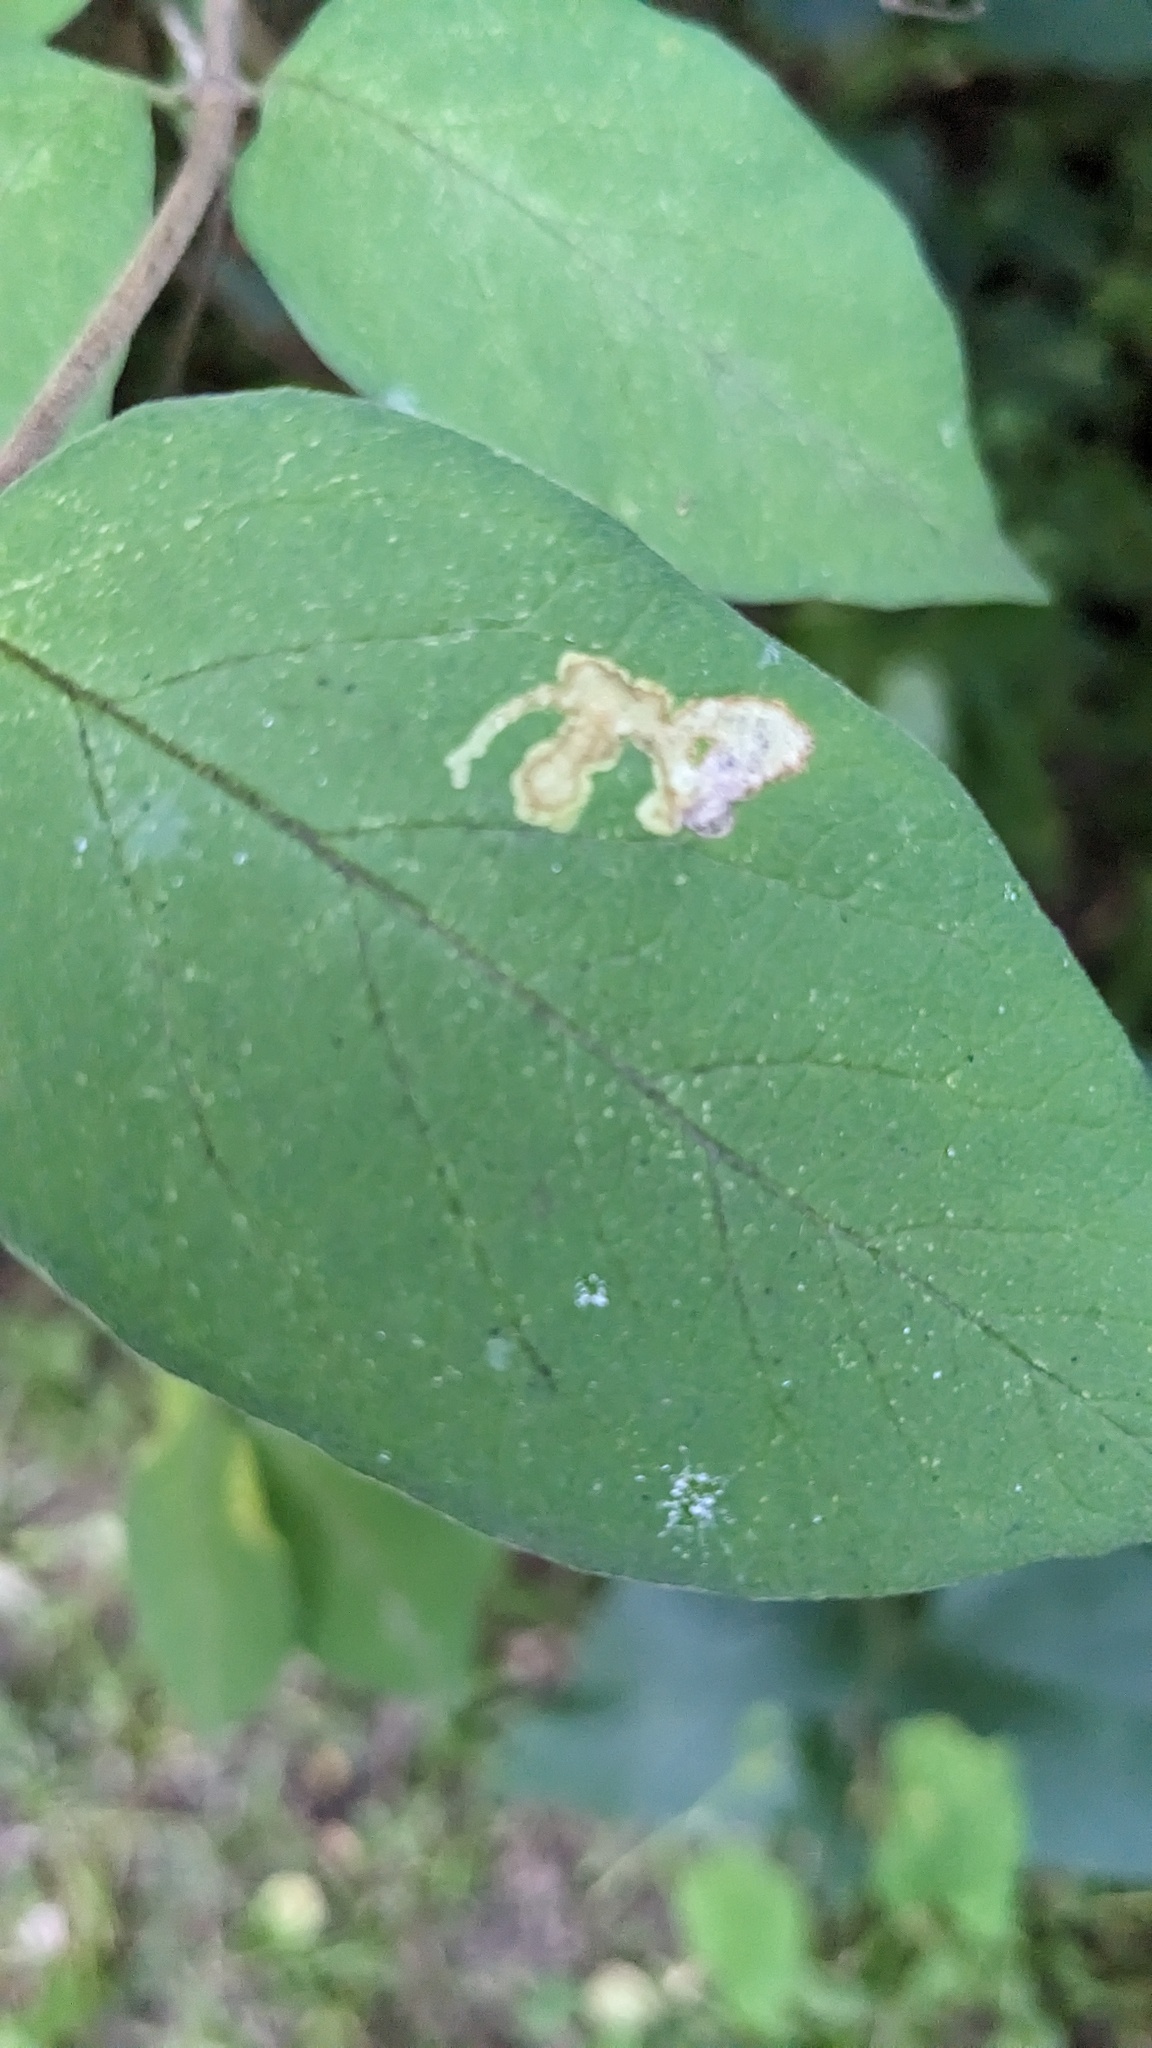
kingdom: Animalia
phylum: Arthropoda
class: Insecta
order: Diptera
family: Agromyzidae
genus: Aulagromyza
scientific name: Aulagromyza
